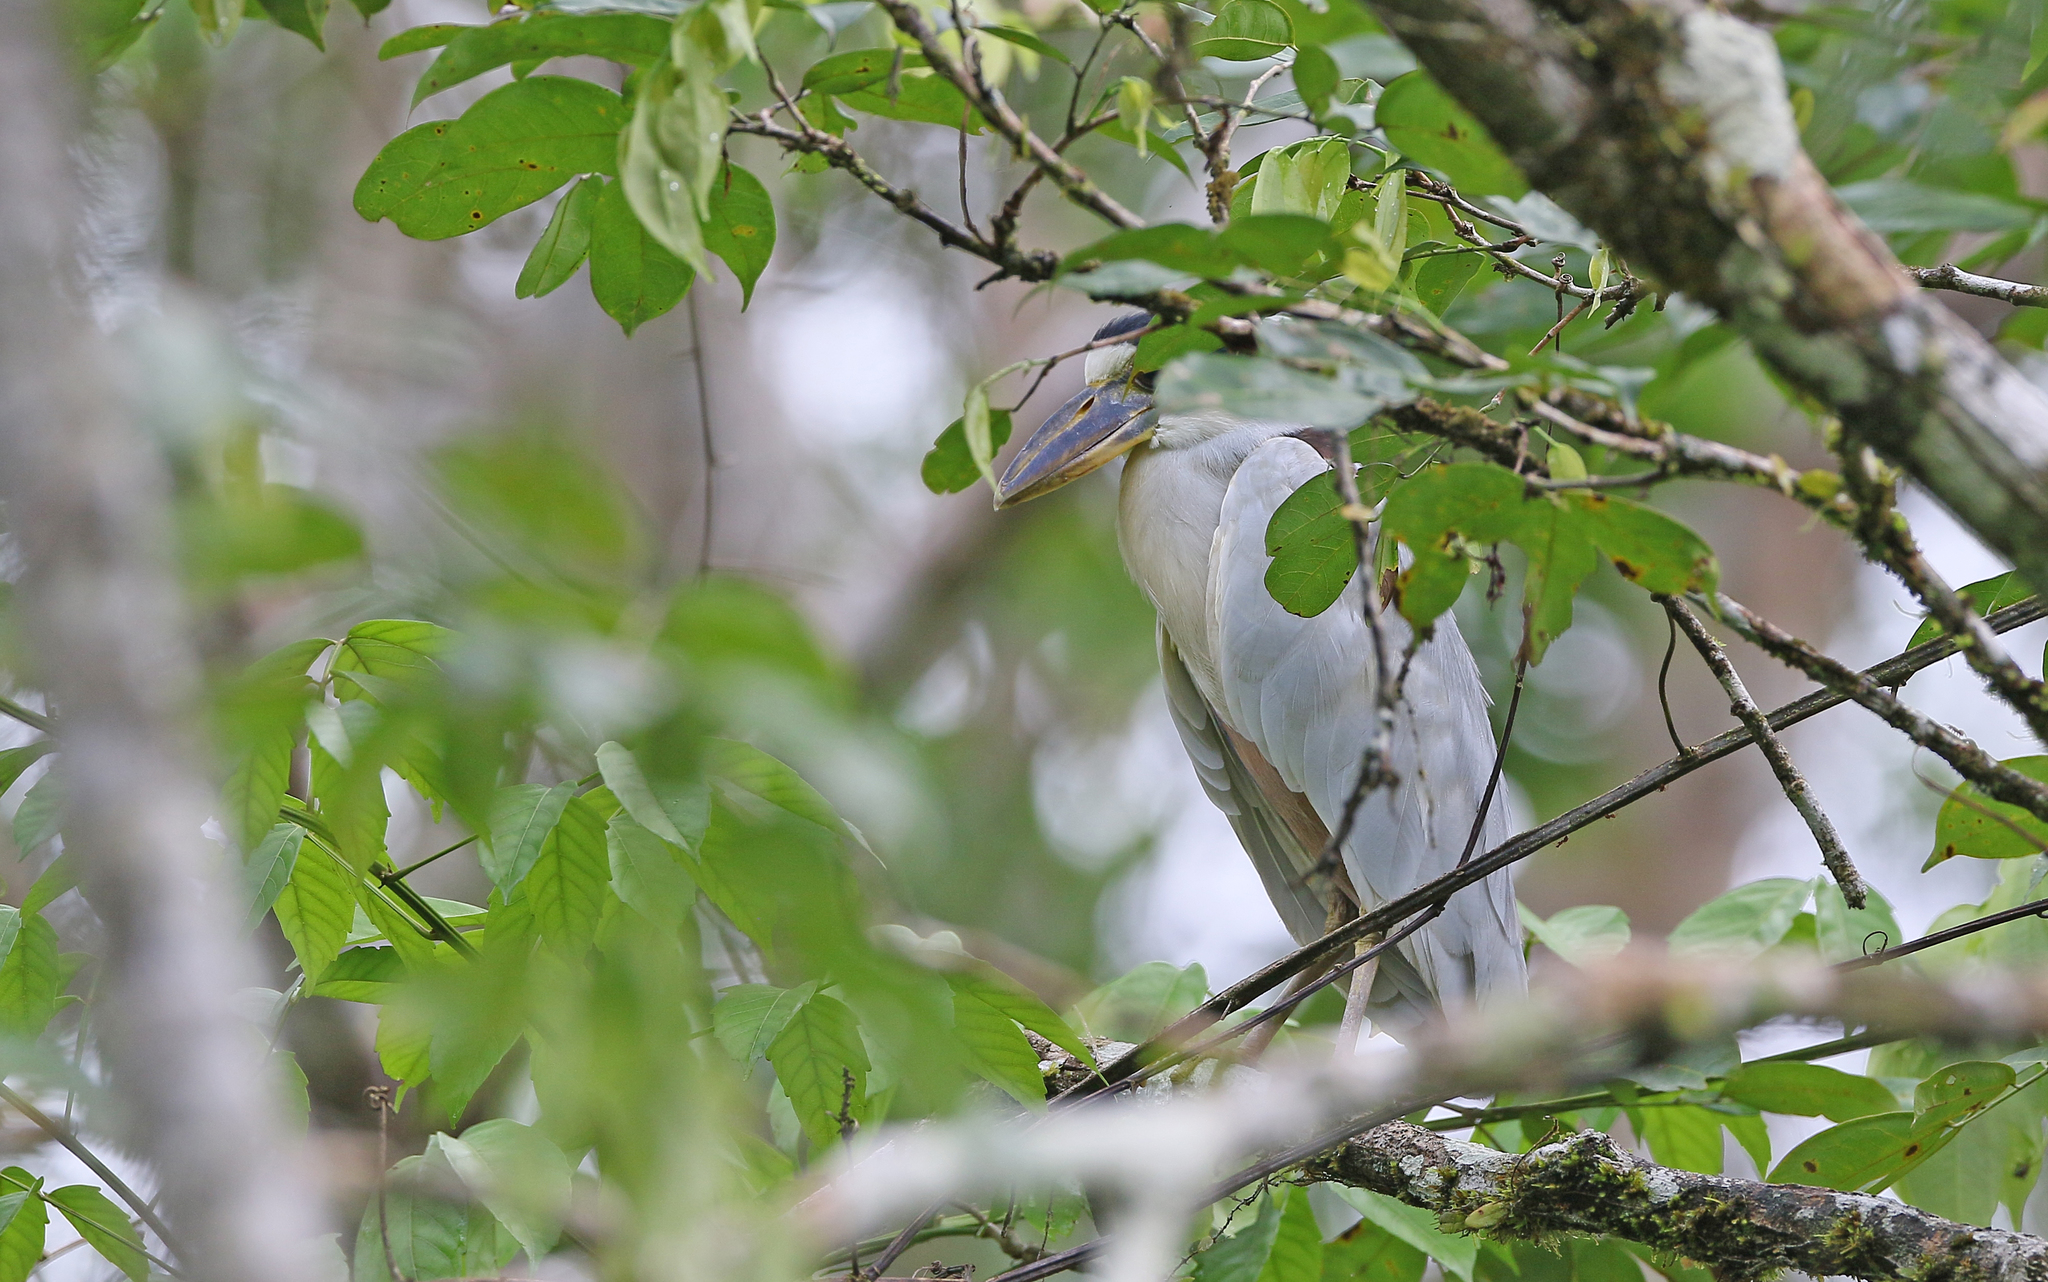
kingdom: Animalia
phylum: Chordata
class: Aves
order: Pelecaniformes
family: Ardeidae
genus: Cochlearius
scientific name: Cochlearius cochlearius
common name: Boat-billed heron
